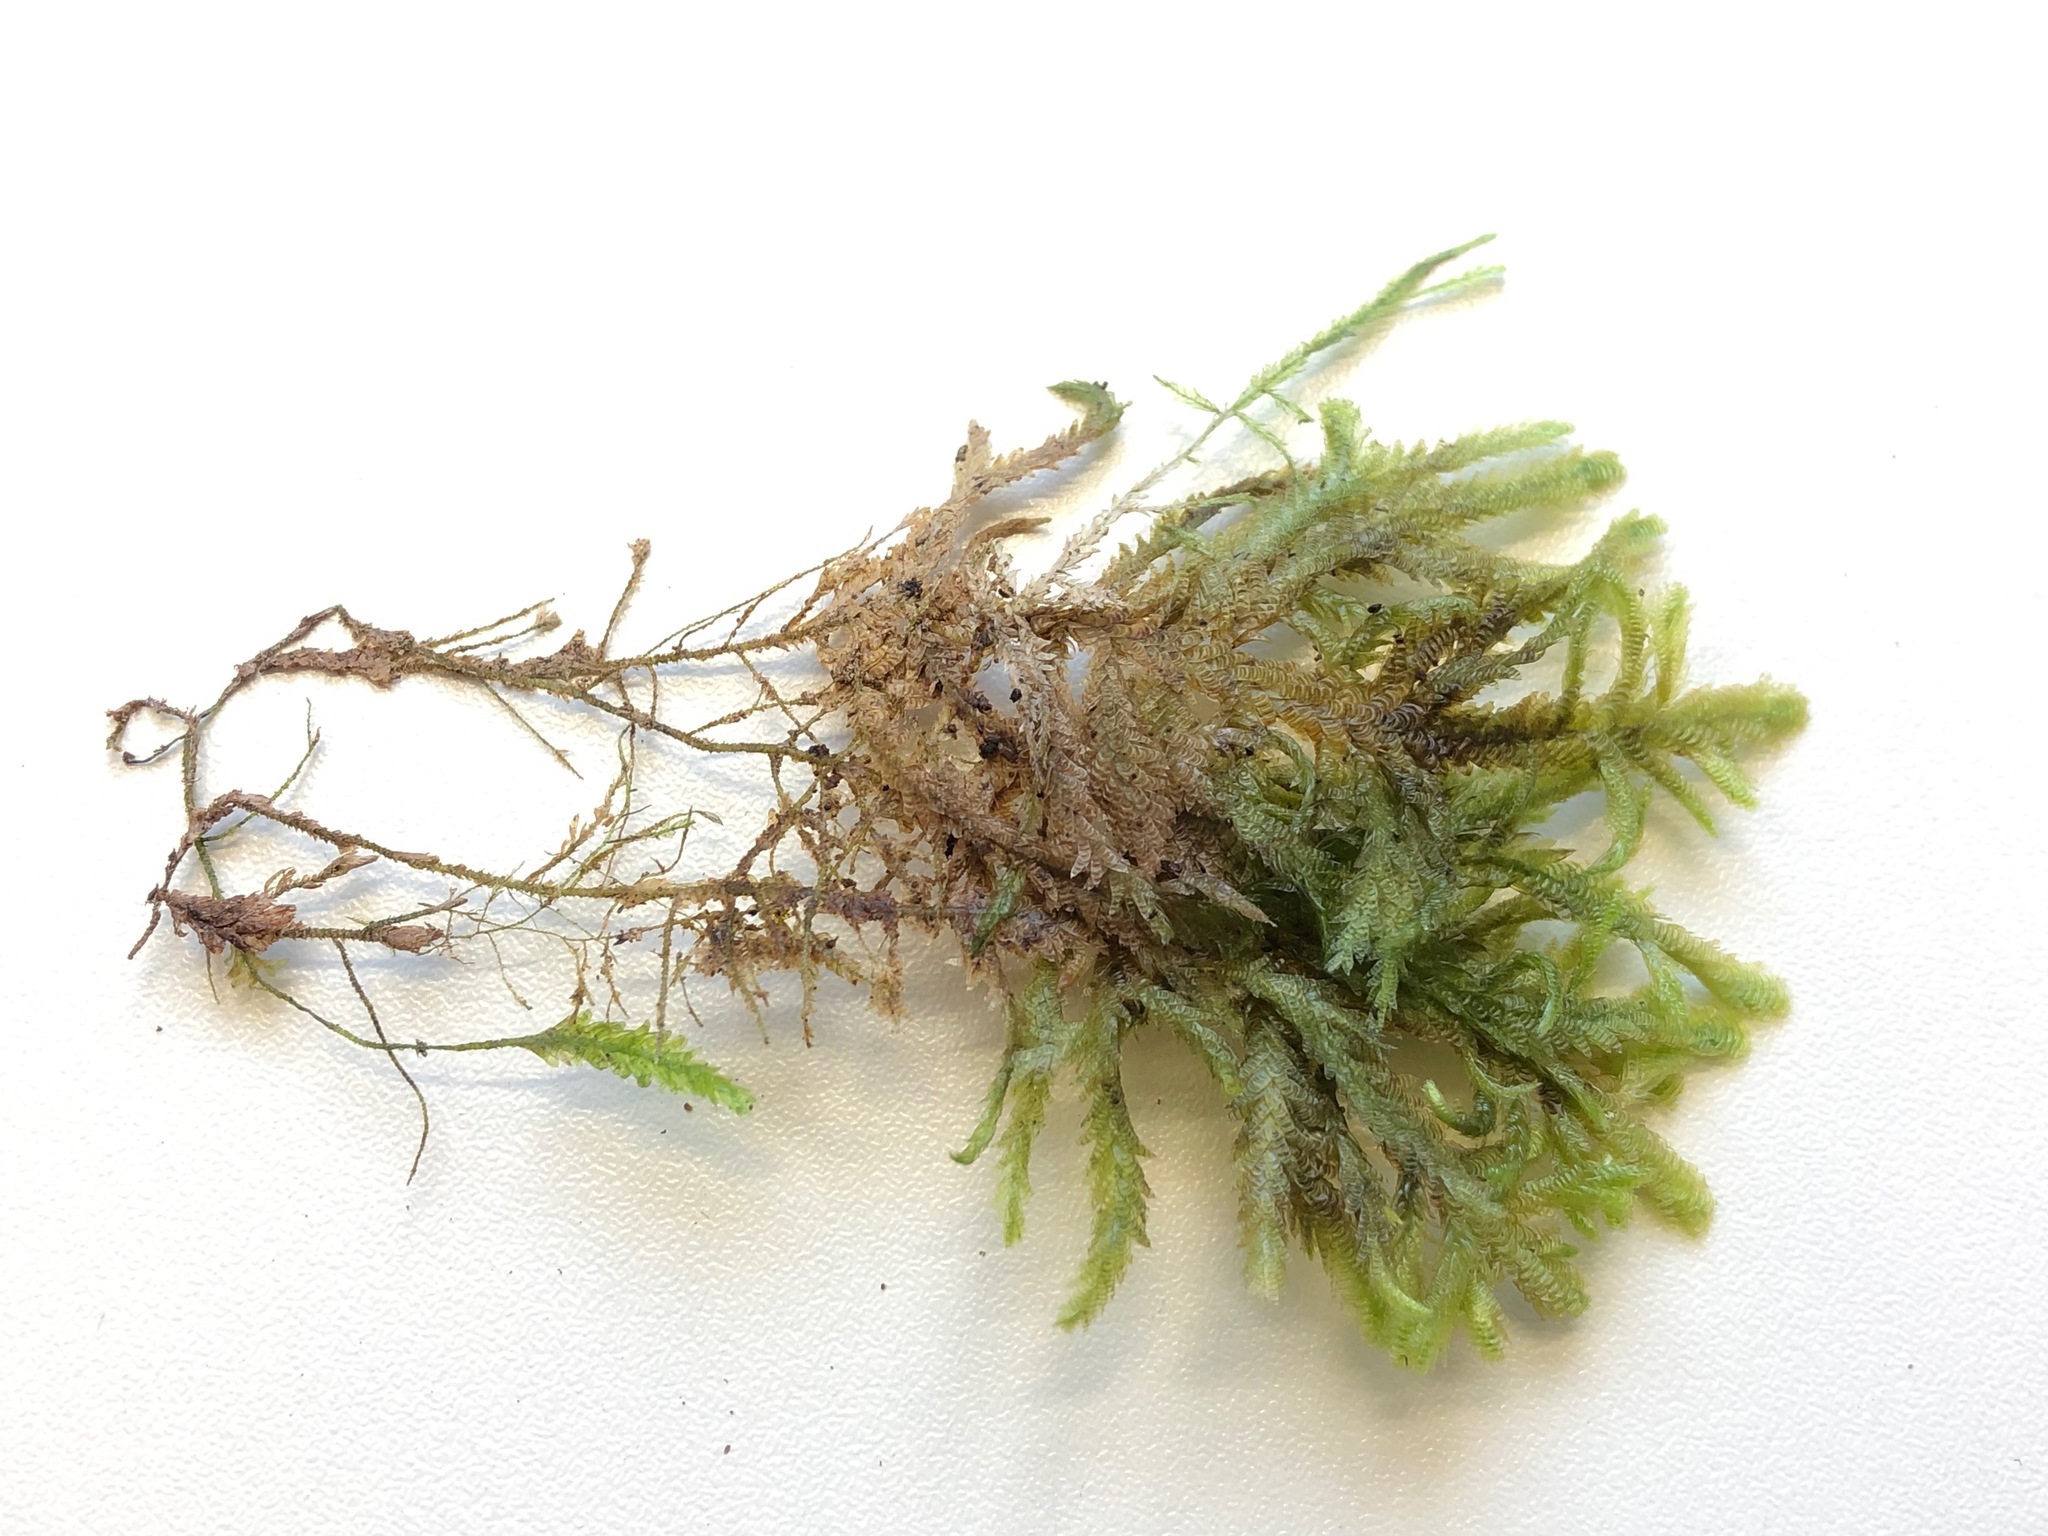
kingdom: Plantae
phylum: Bryophyta
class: Bryopsida
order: Hypnales
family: Neckeraceae
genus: Exsertotheca
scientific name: Exsertotheca crispa
